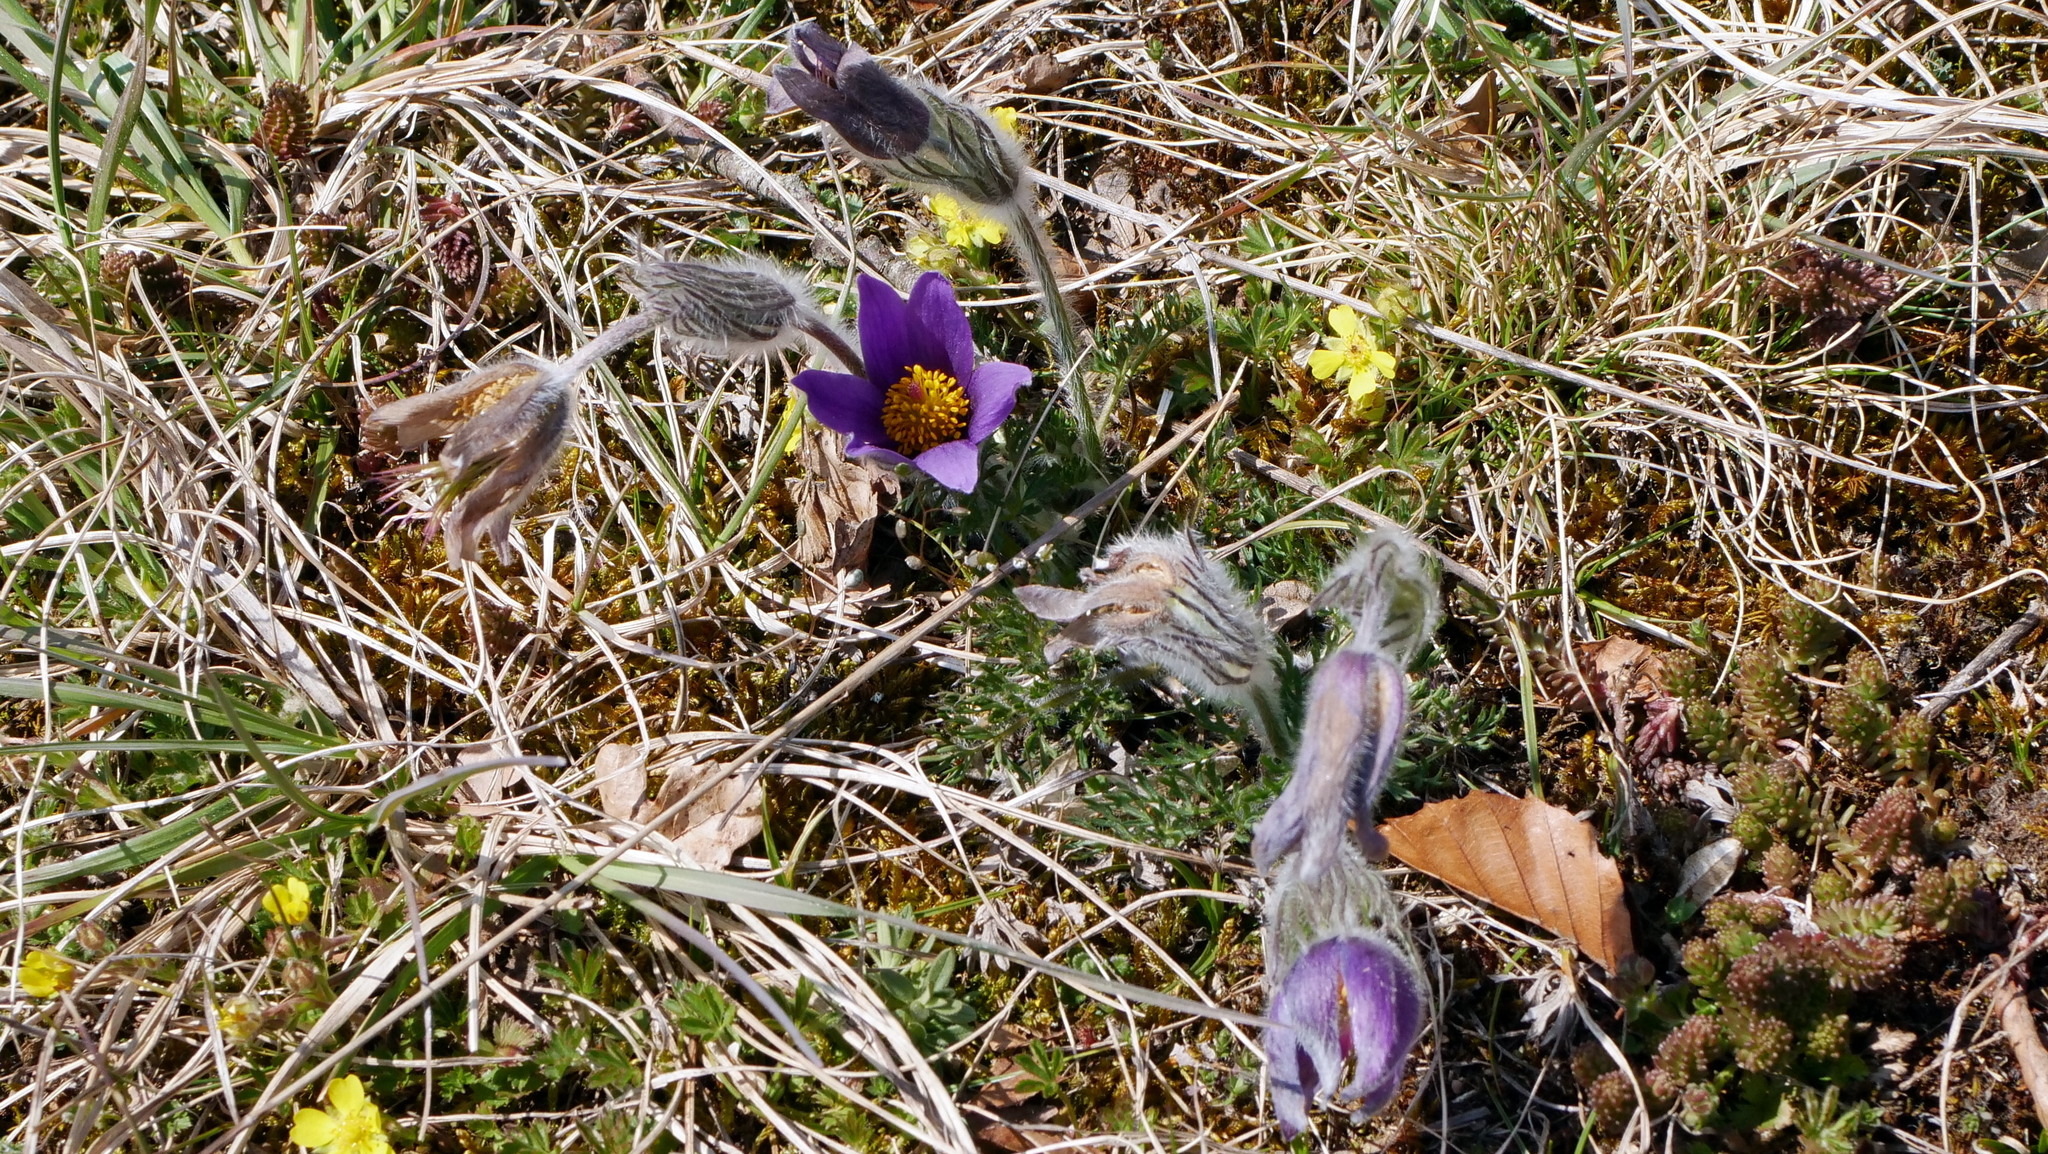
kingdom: Plantae
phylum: Tracheophyta
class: Magnoliopsida
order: Ranunculales
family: Ranunculaceae
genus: Pulsatilla
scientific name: Pulsatilla vulgaris
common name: Pasqueflower
